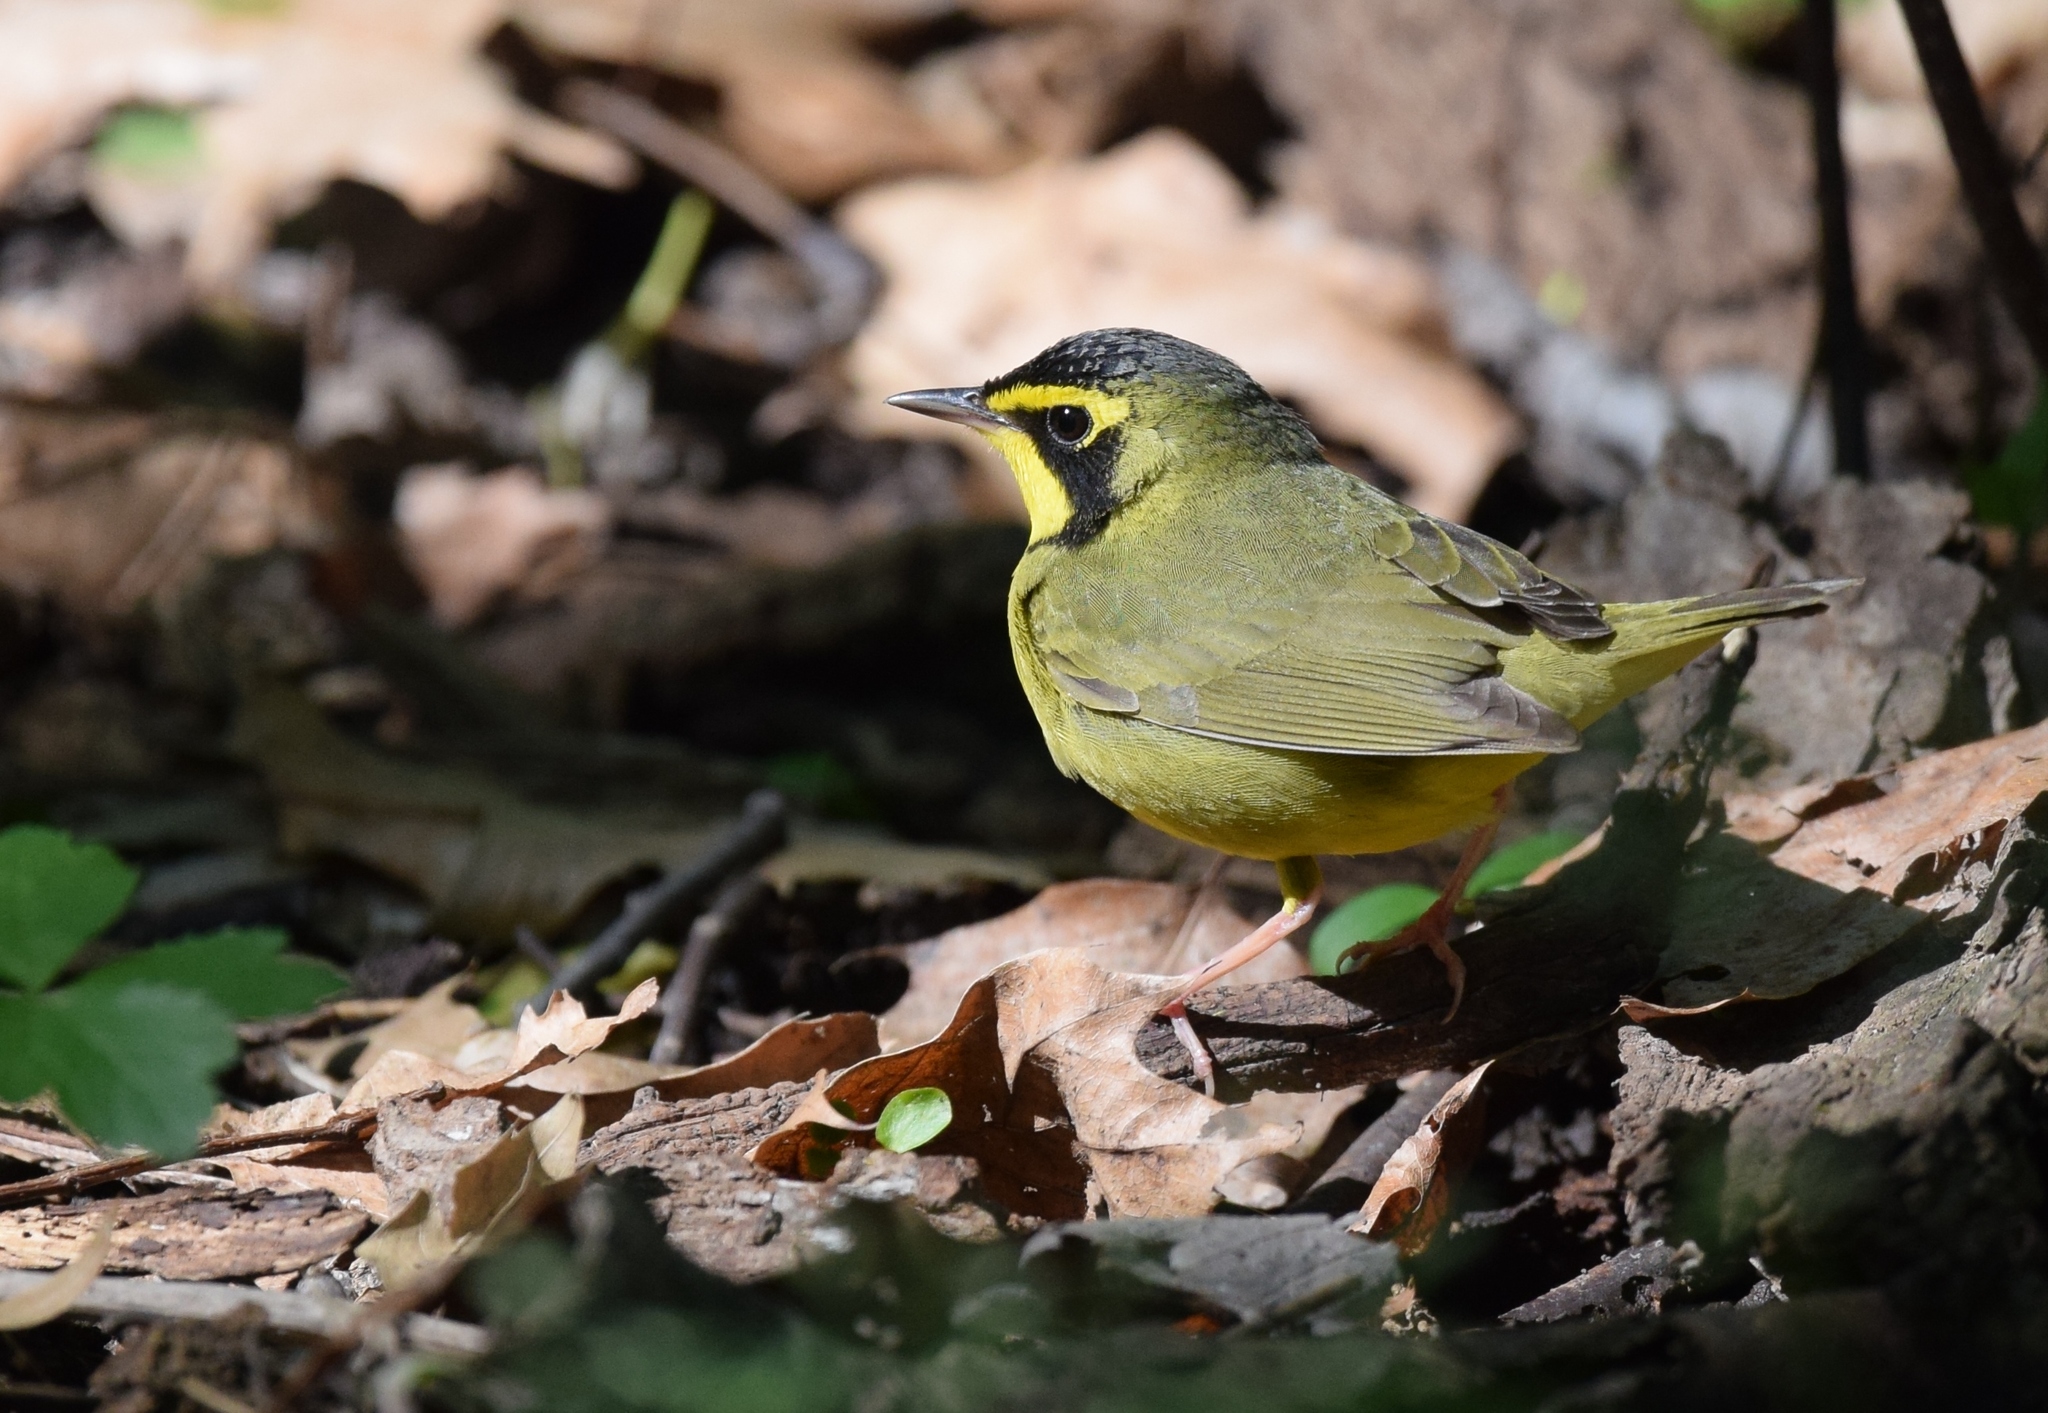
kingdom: Animalia
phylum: Chordata
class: Aves
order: Passeriformes
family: Parulidae
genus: Geothlypis
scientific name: Geothlypis formosa
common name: Kentucky warbler
